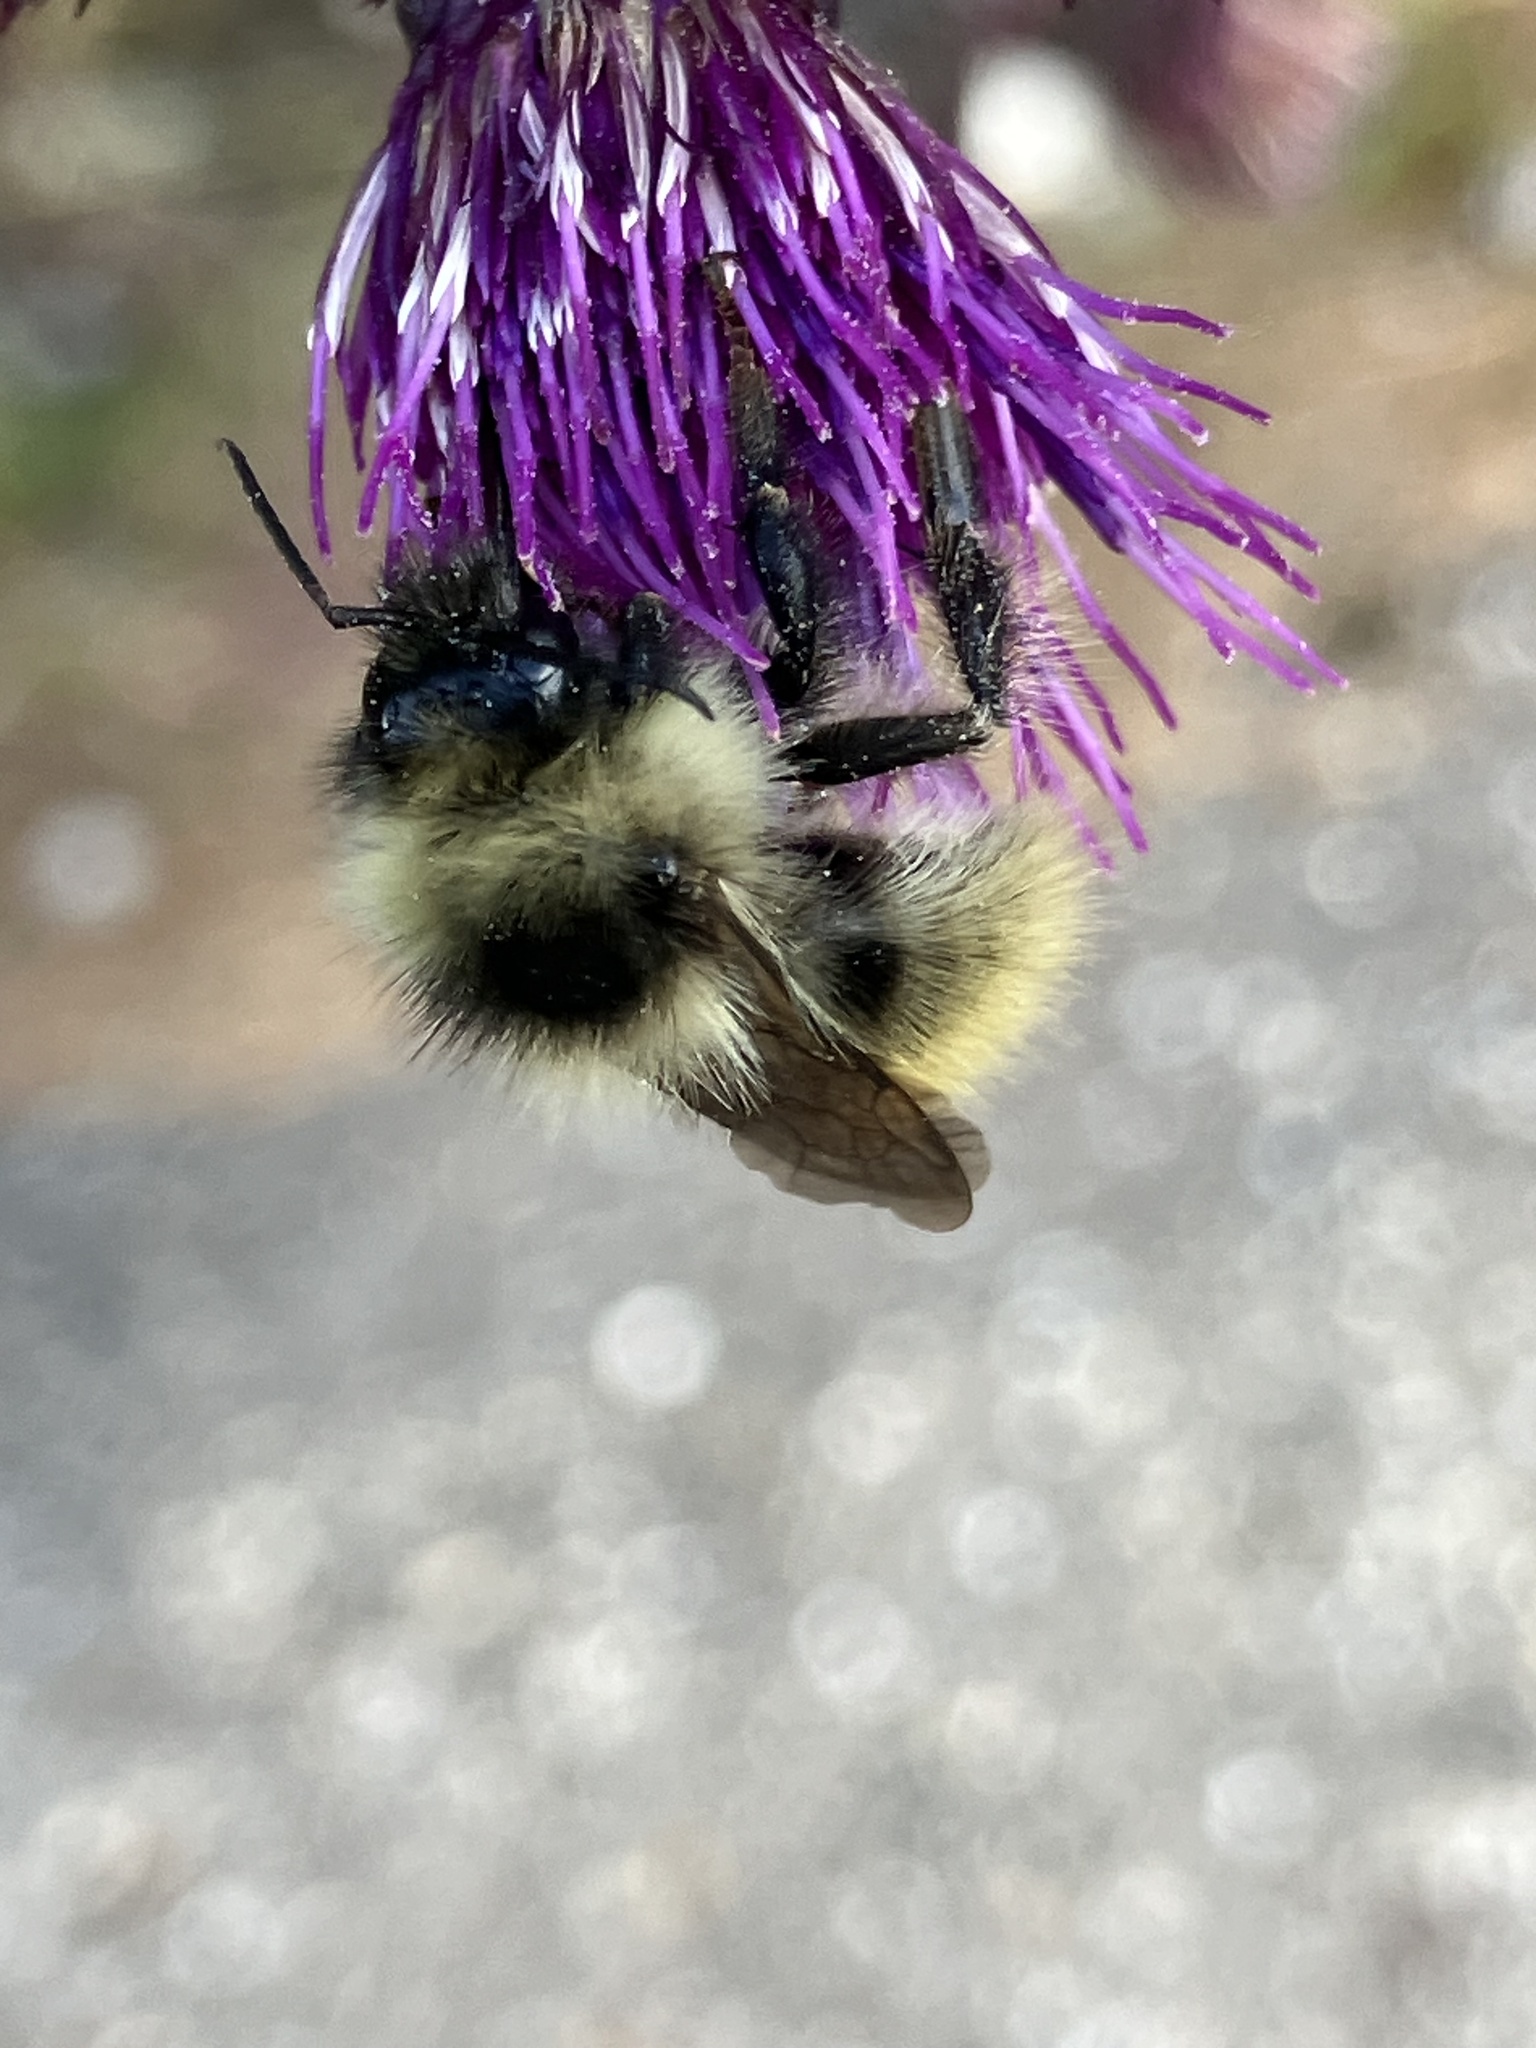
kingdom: Animalia
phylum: Arthropoda
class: Insecta
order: Hymenoptera
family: Apidae
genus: Bombus
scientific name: Bombus mucidus
